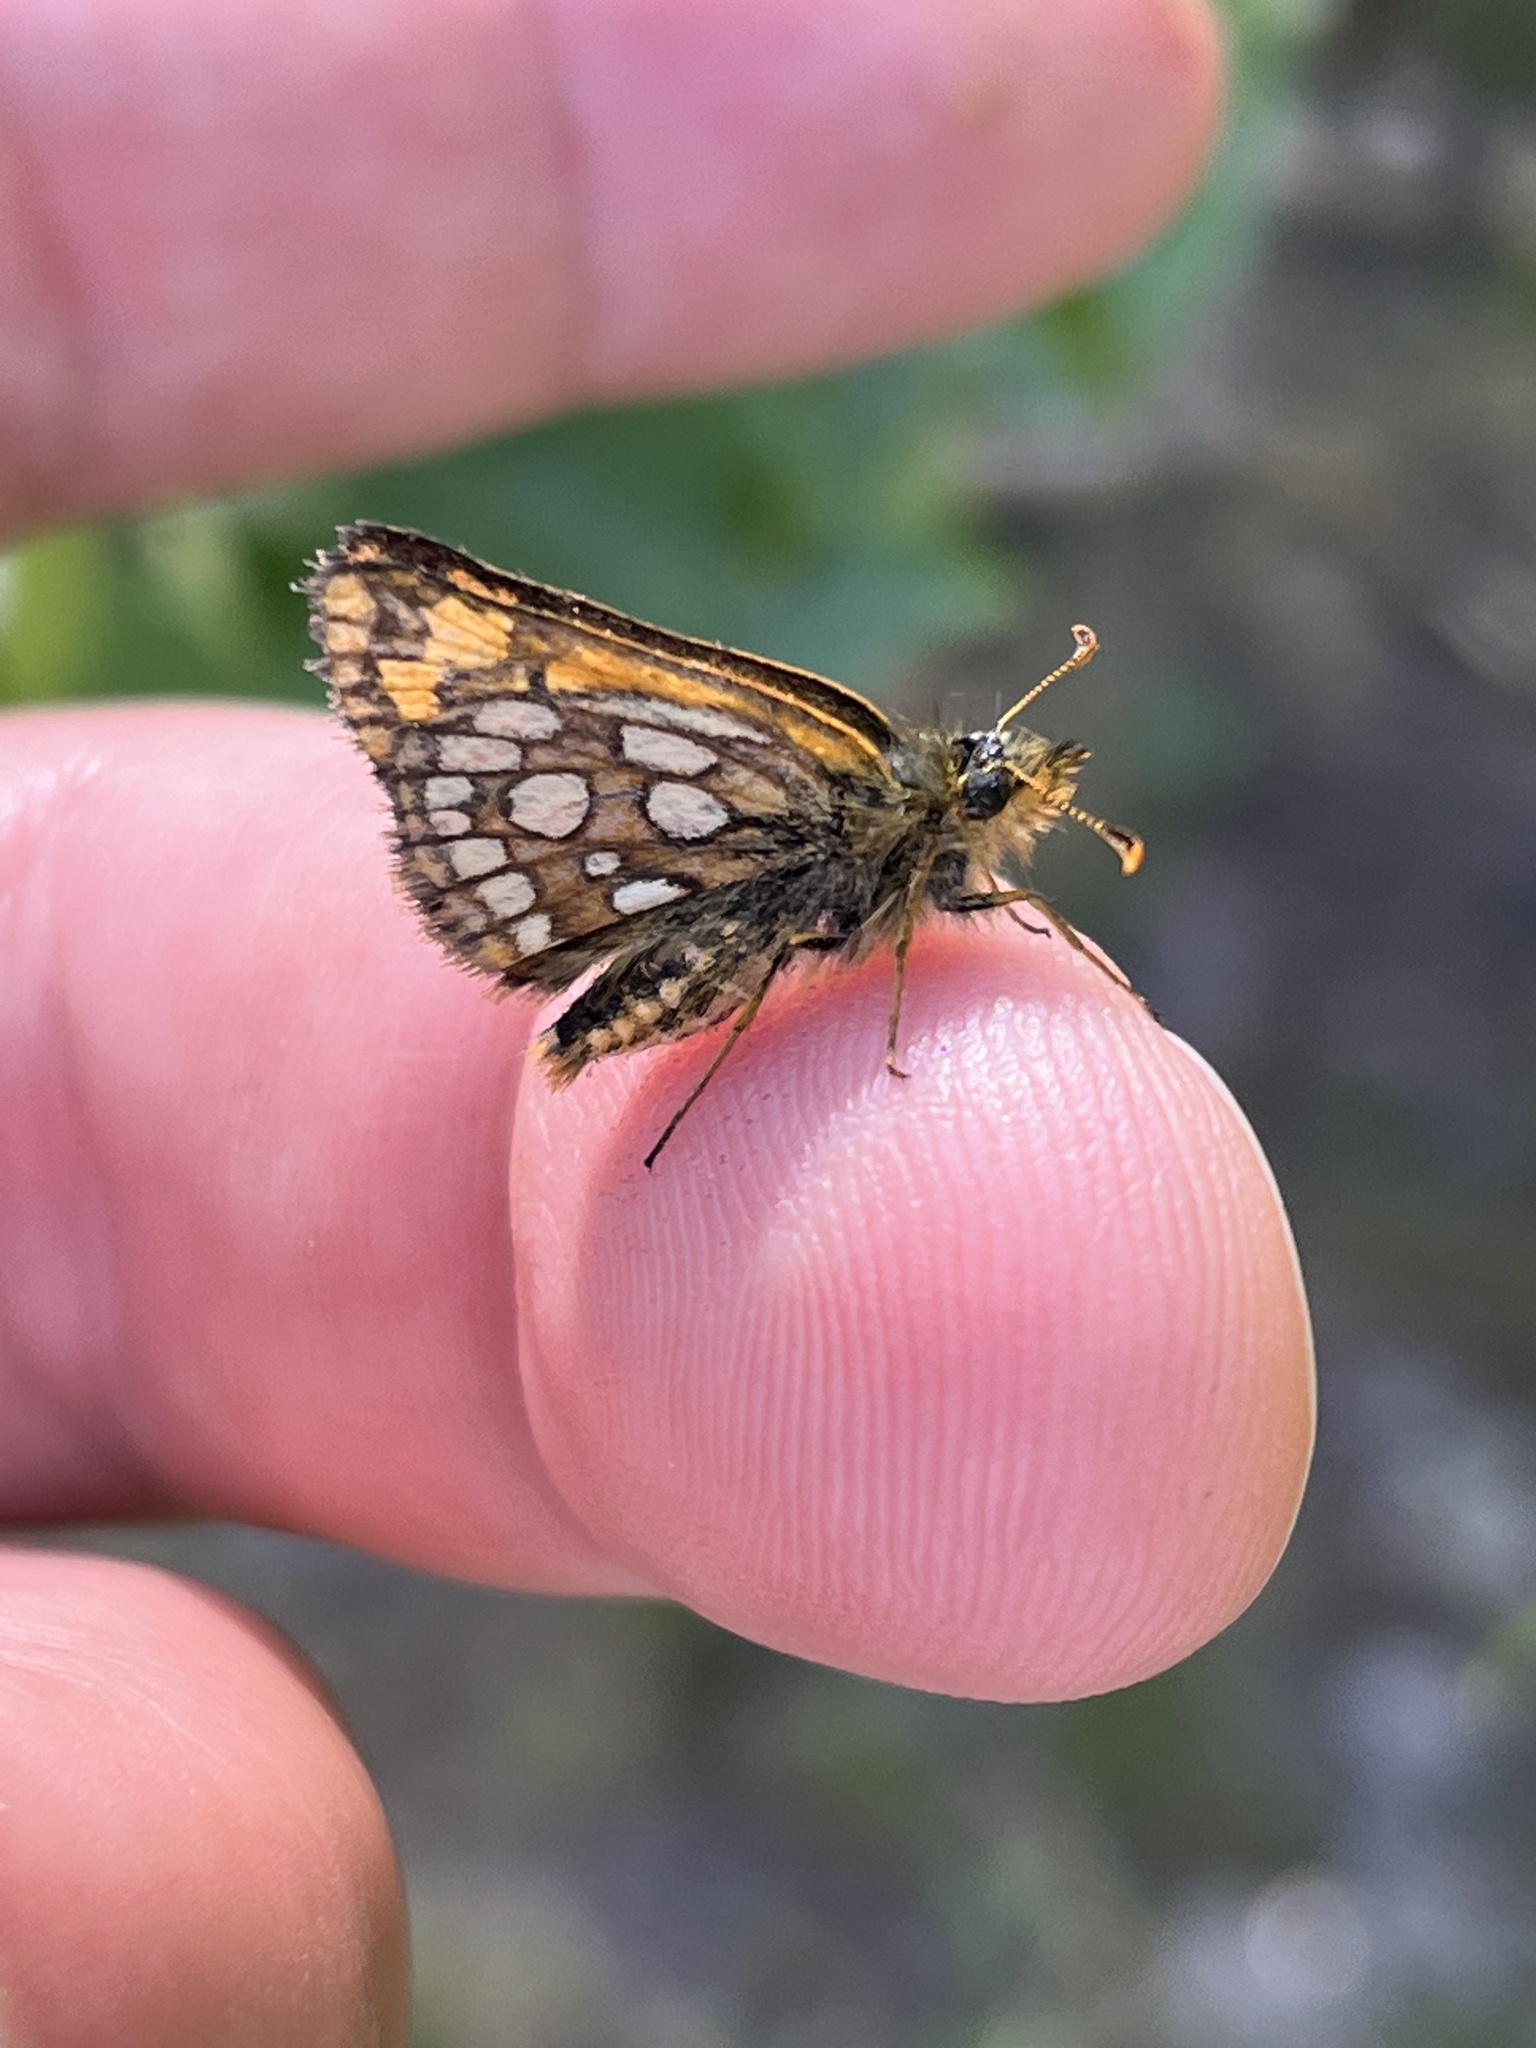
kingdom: Animalia
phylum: Arthropoda
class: Insecta
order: Lepidoptera
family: Hesperiidae
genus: Carterocephalus
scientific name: Carterocephalus skada
